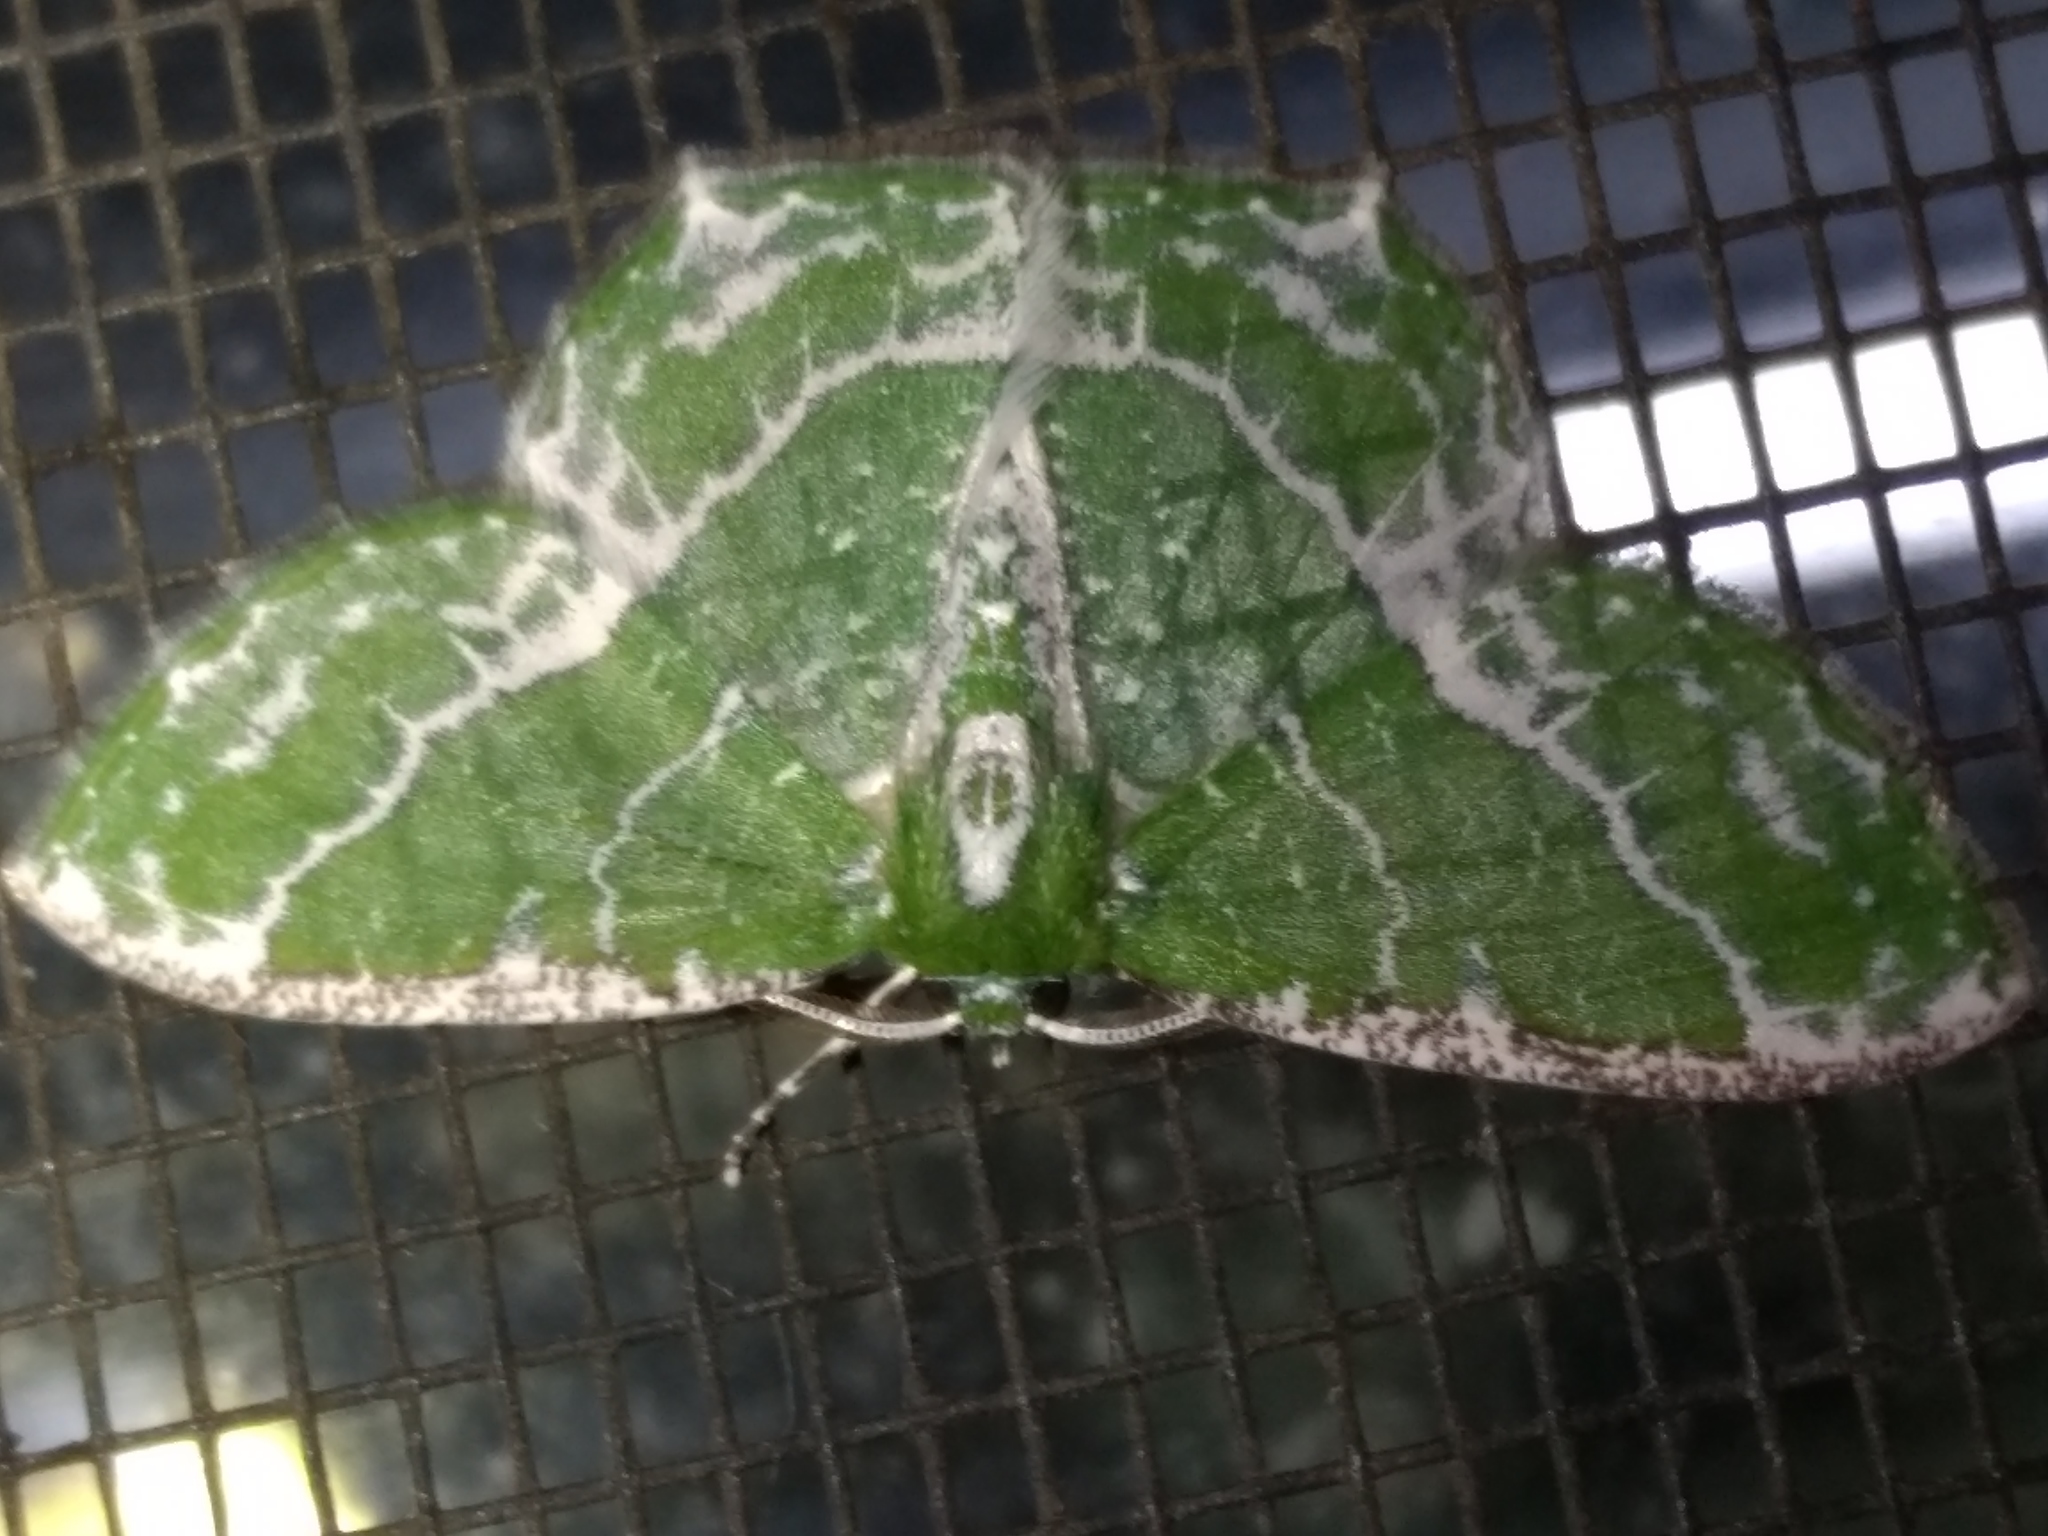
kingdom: Animalia
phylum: Arthropoda
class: Insecta
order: Lepidoptera
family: Geometridae
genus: Eucyclodes
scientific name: Eucyclodes insperata
